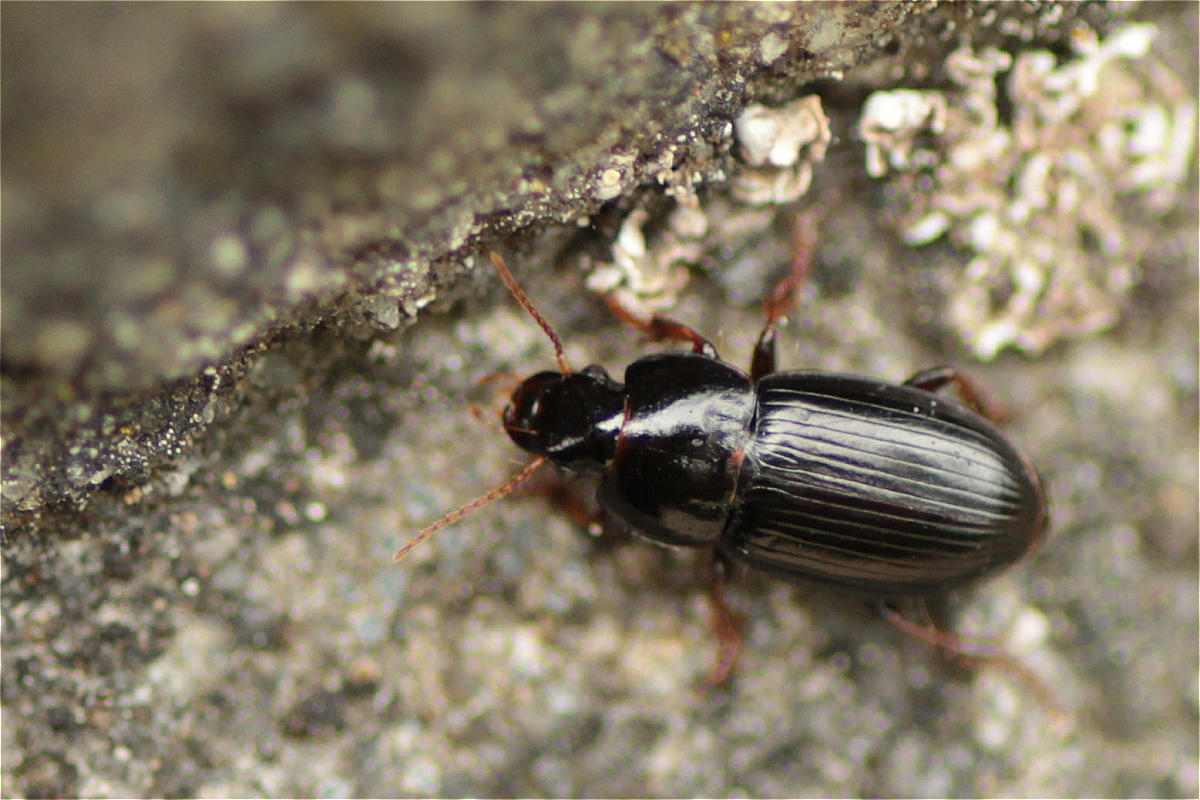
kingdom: Animalia
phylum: Arthropoda
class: Insecta
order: Coleoptera
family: Carabidae
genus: Harpalus
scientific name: Harpalus pumilus
